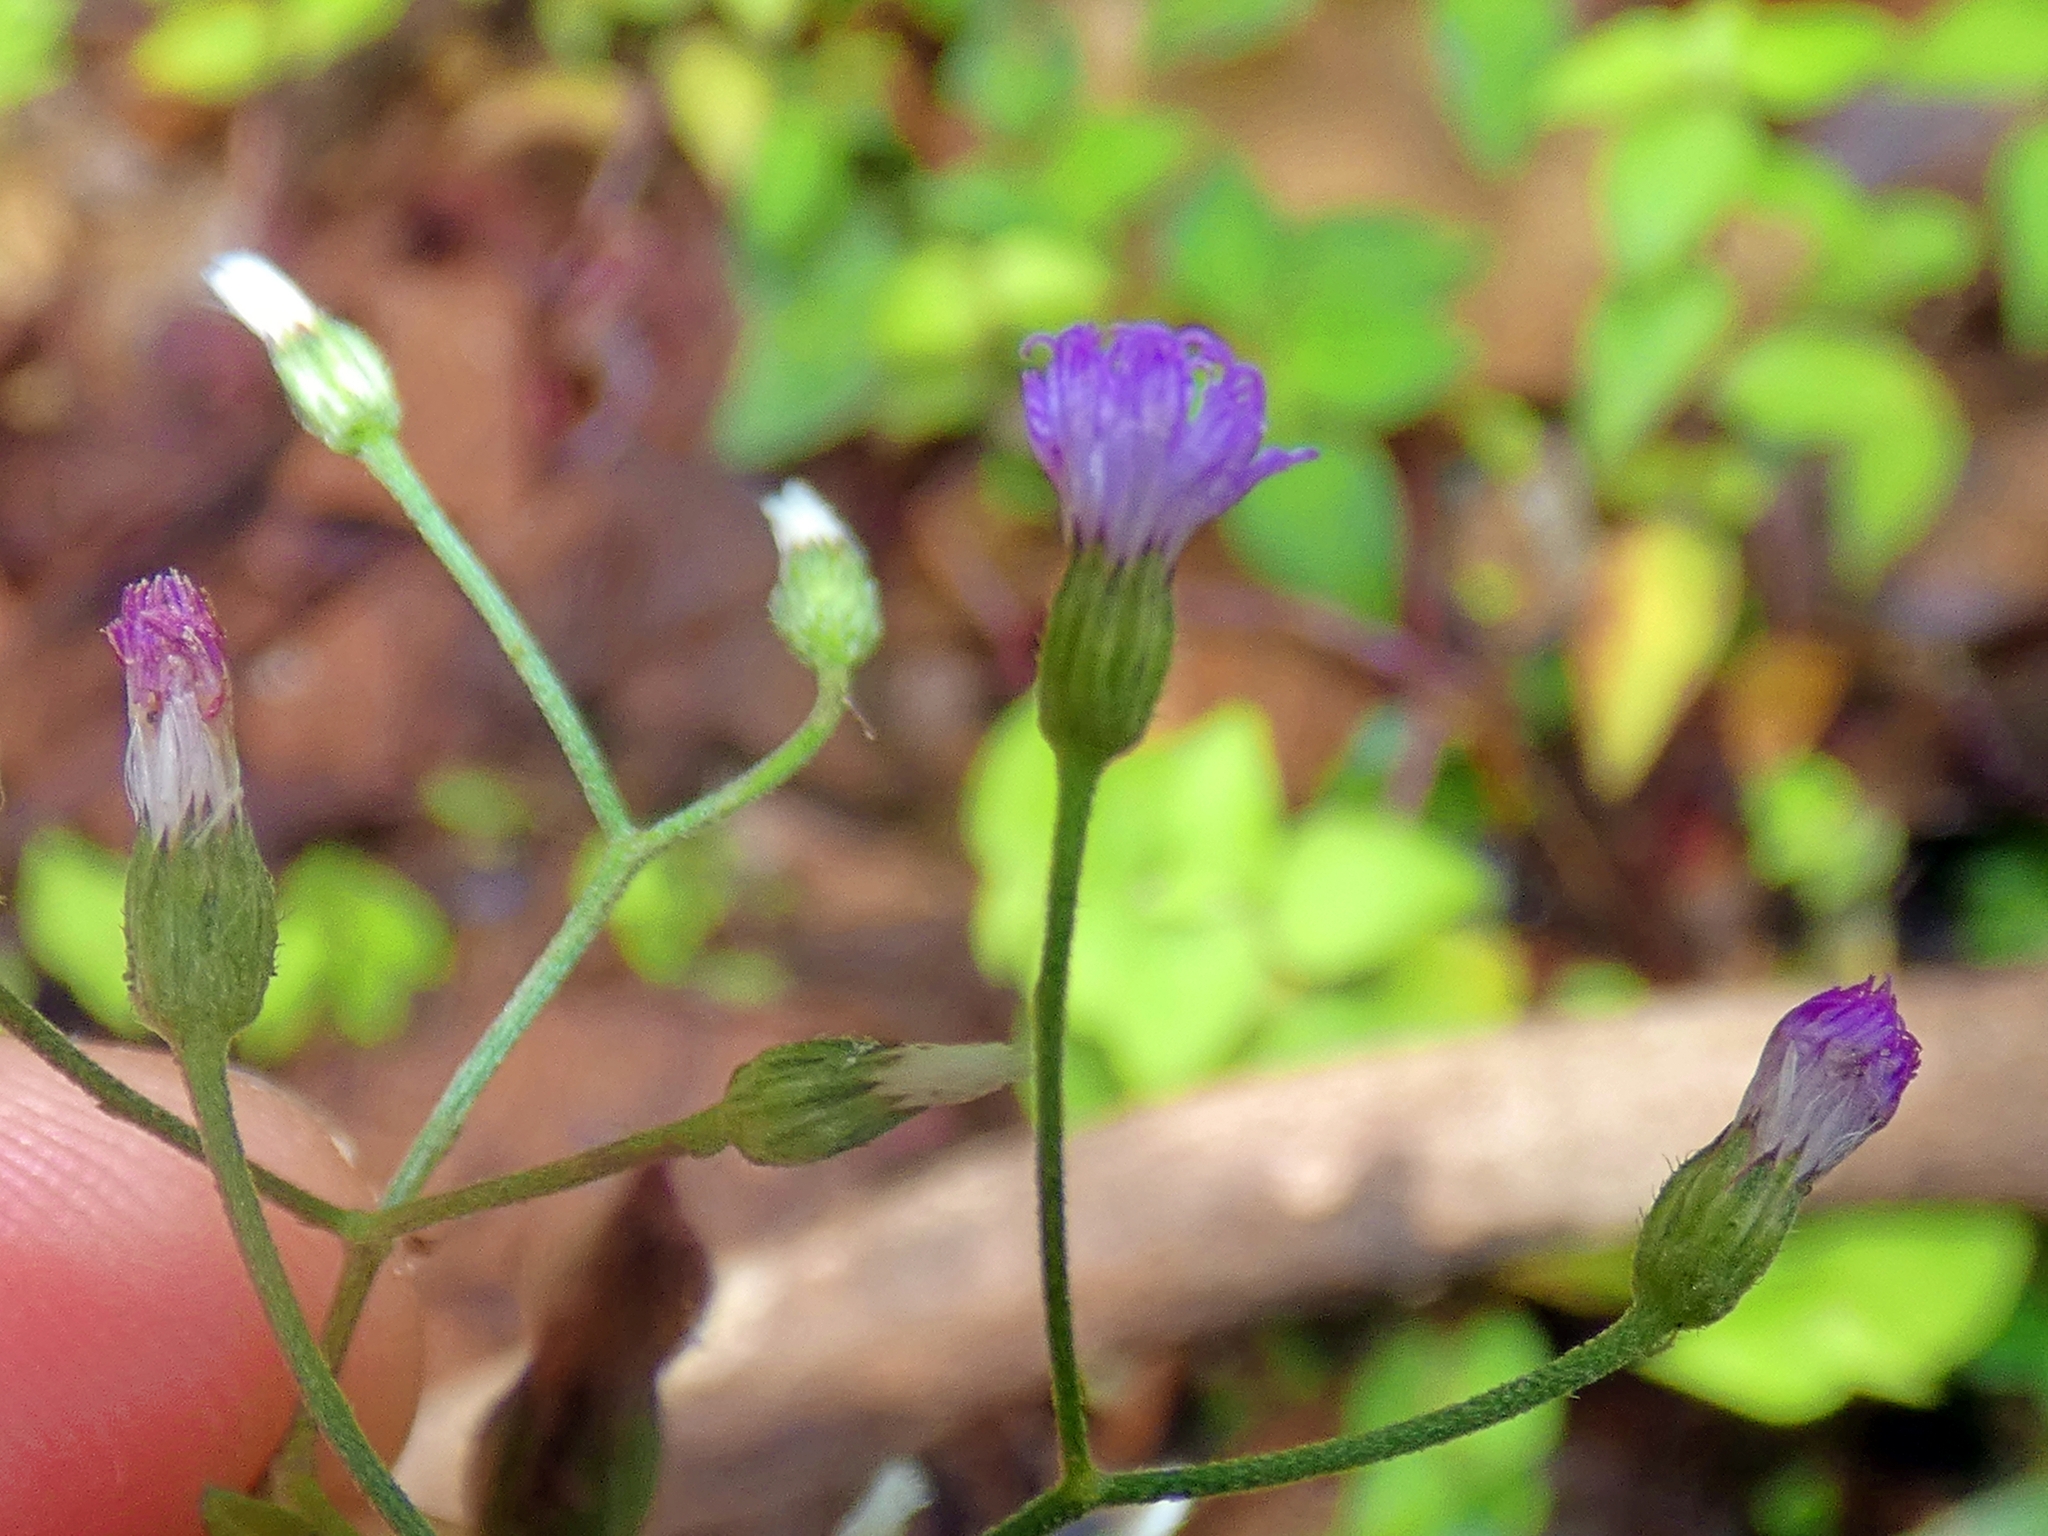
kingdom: Plantae
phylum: Tracheophyta
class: Magnoliopsida
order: Asterales
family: Asteraceae
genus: Cyanthillium
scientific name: Cyanthillium cinereum
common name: Little ironweed
